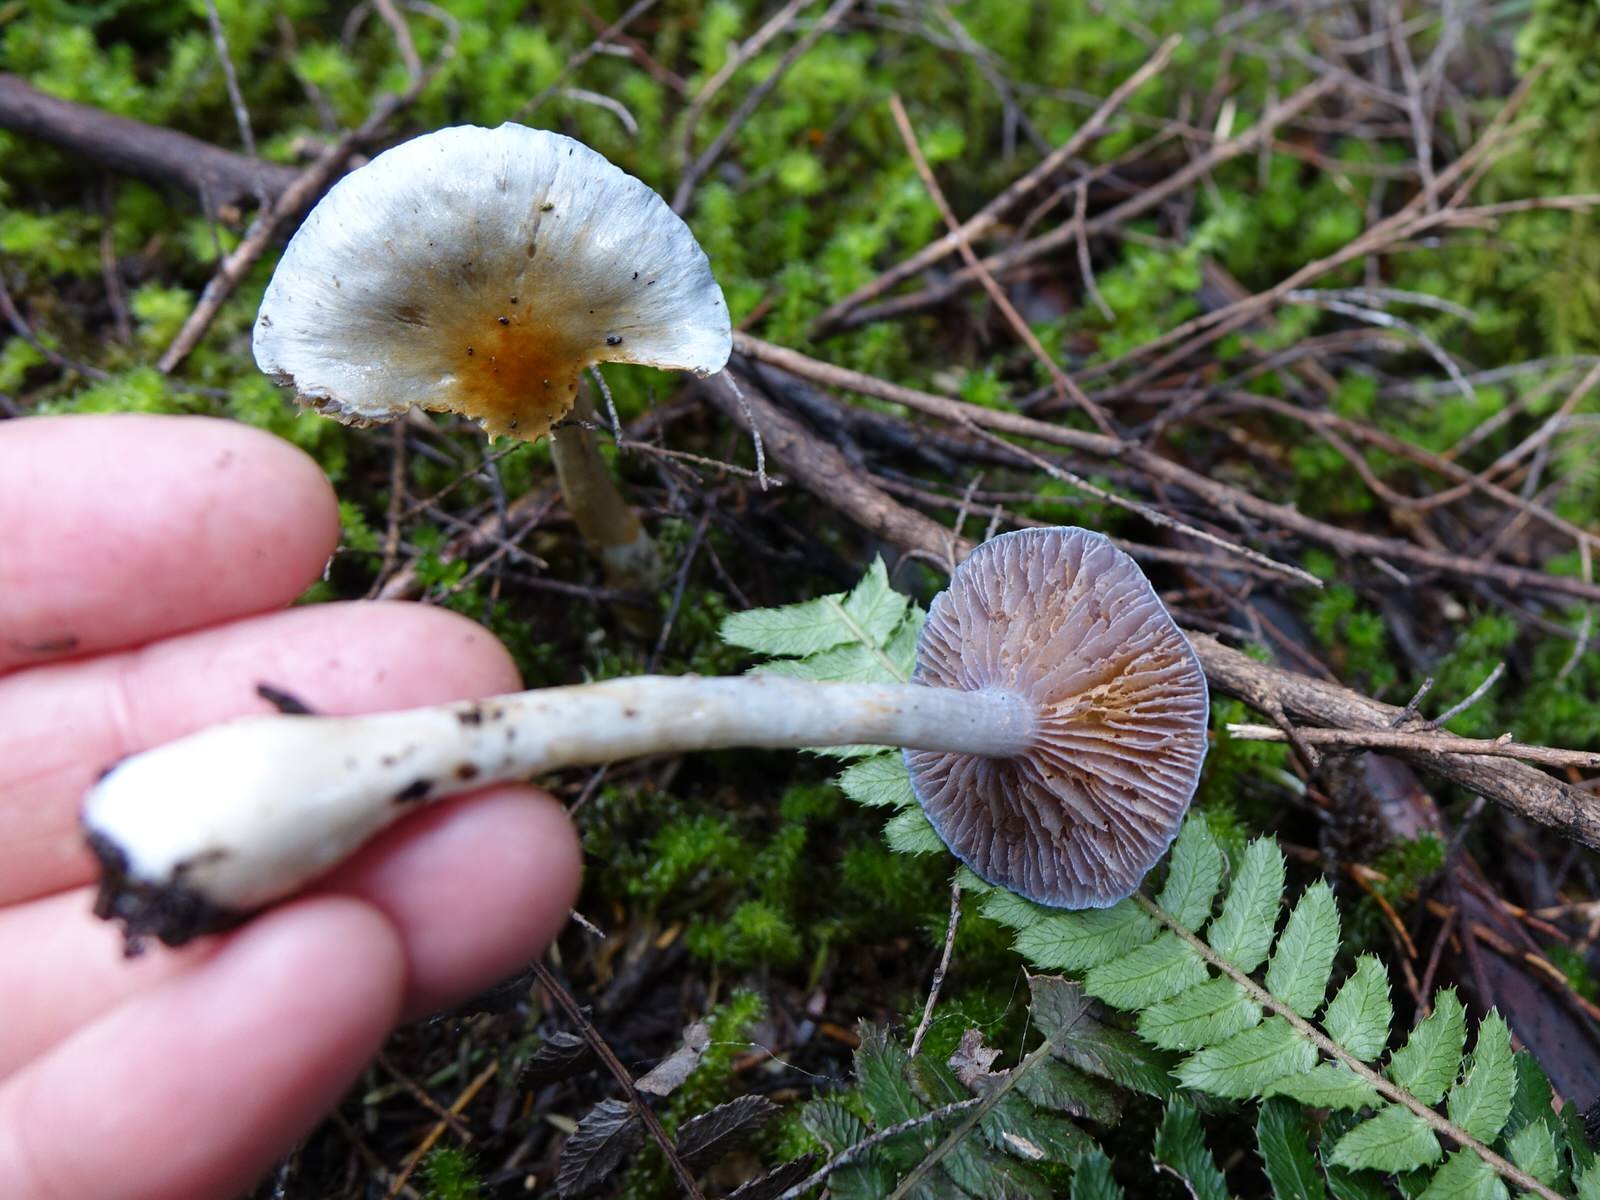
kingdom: Fungi
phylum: Basidiomycota
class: Agaricomycetes
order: Agaricales
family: Cortinariaceae
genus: Cortinarius
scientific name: Cortinarius rotundisporus
